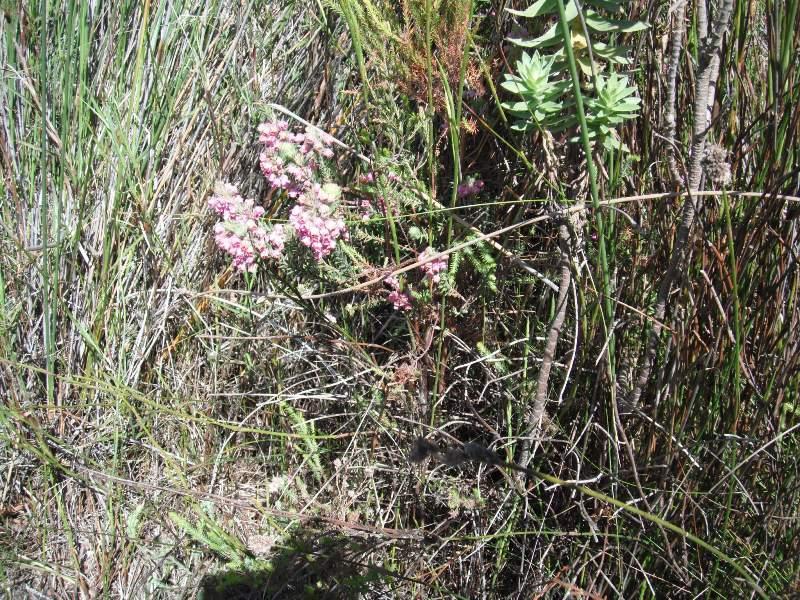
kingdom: Plantae
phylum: Tracheophyta
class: Magnoliopsida
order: Ericales
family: Ericaceae
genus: Erica
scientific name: Erica amoena
